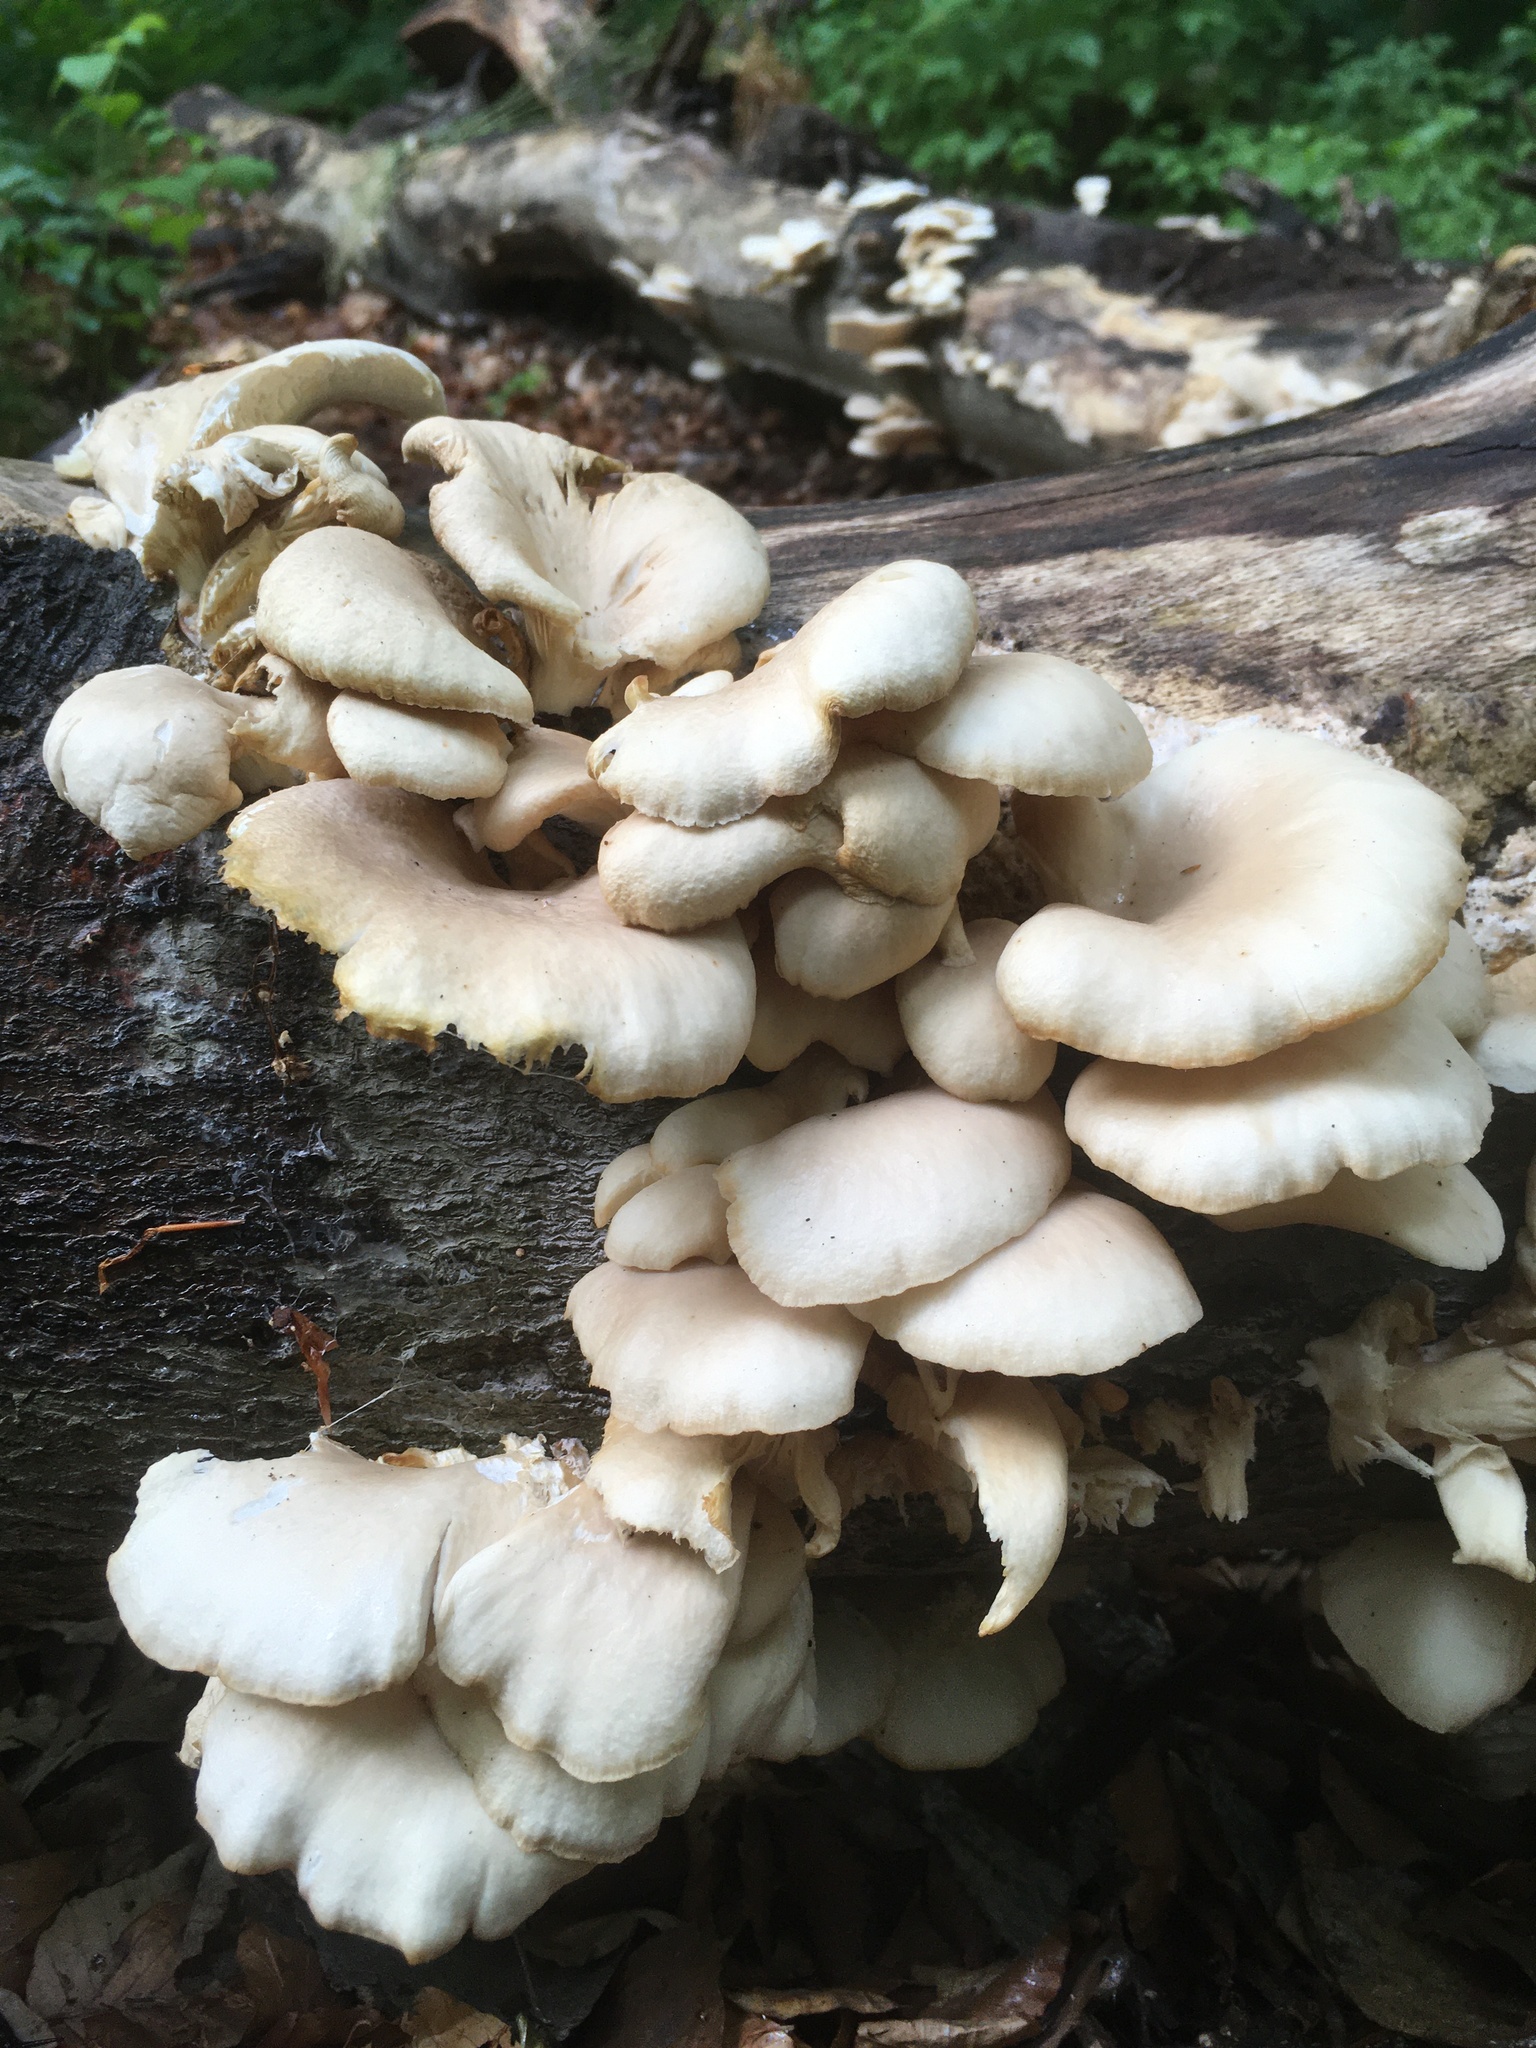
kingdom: Fungi
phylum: Basidiomycota
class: Agaricomycetes
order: Agaricales
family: Pleurotaceae
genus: Pleurotus
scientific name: Pleurotus pulmonarius
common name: Pale oyster
